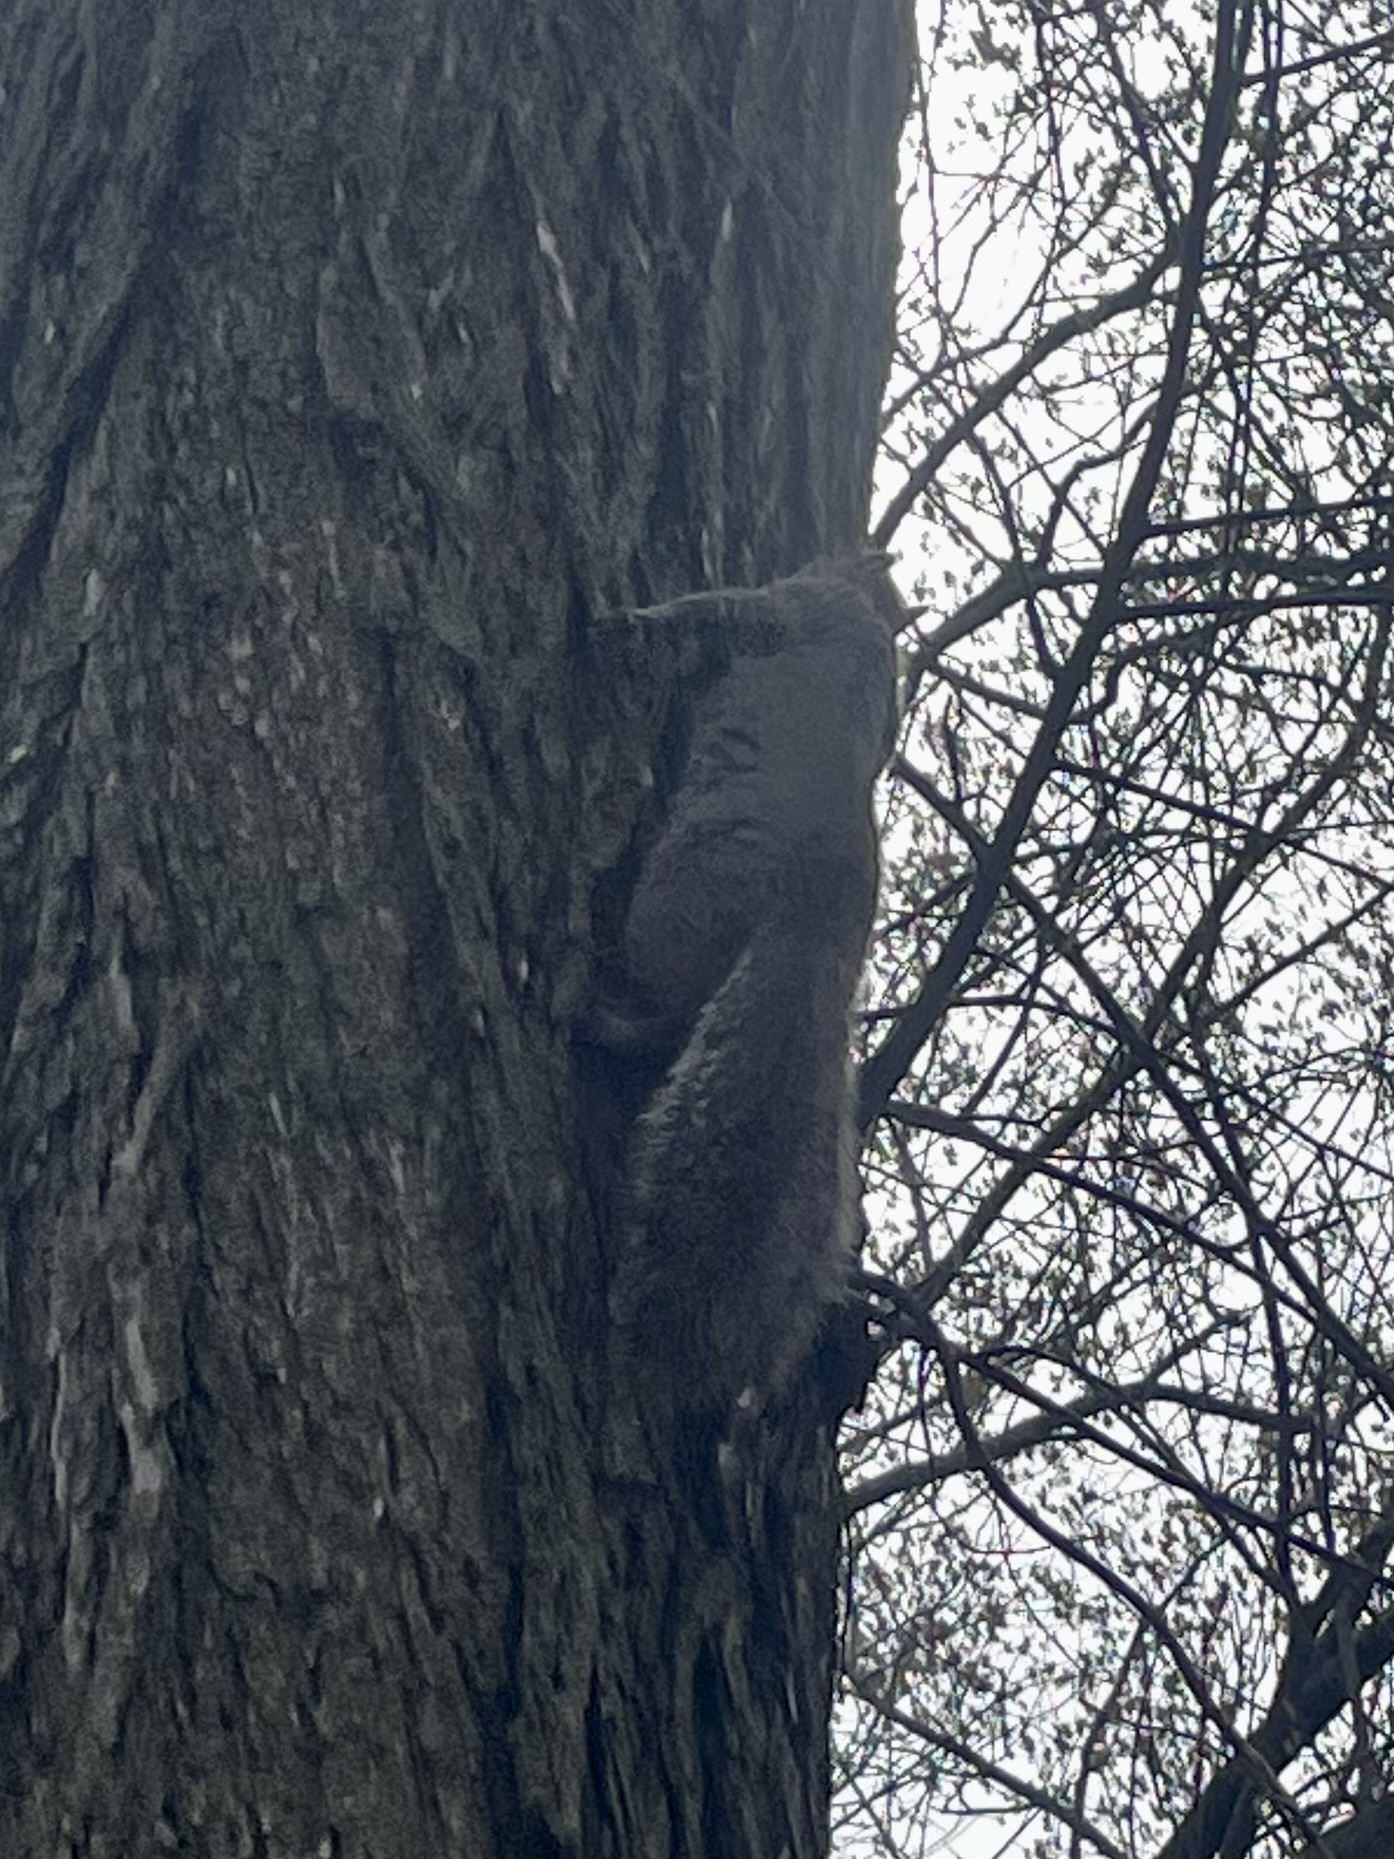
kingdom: Animalia
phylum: Chordata
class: Mammalia
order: Rodentia
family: Sciuridae
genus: Sciurus
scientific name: Sciurus carolinensis
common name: Eastern gray squirrel
